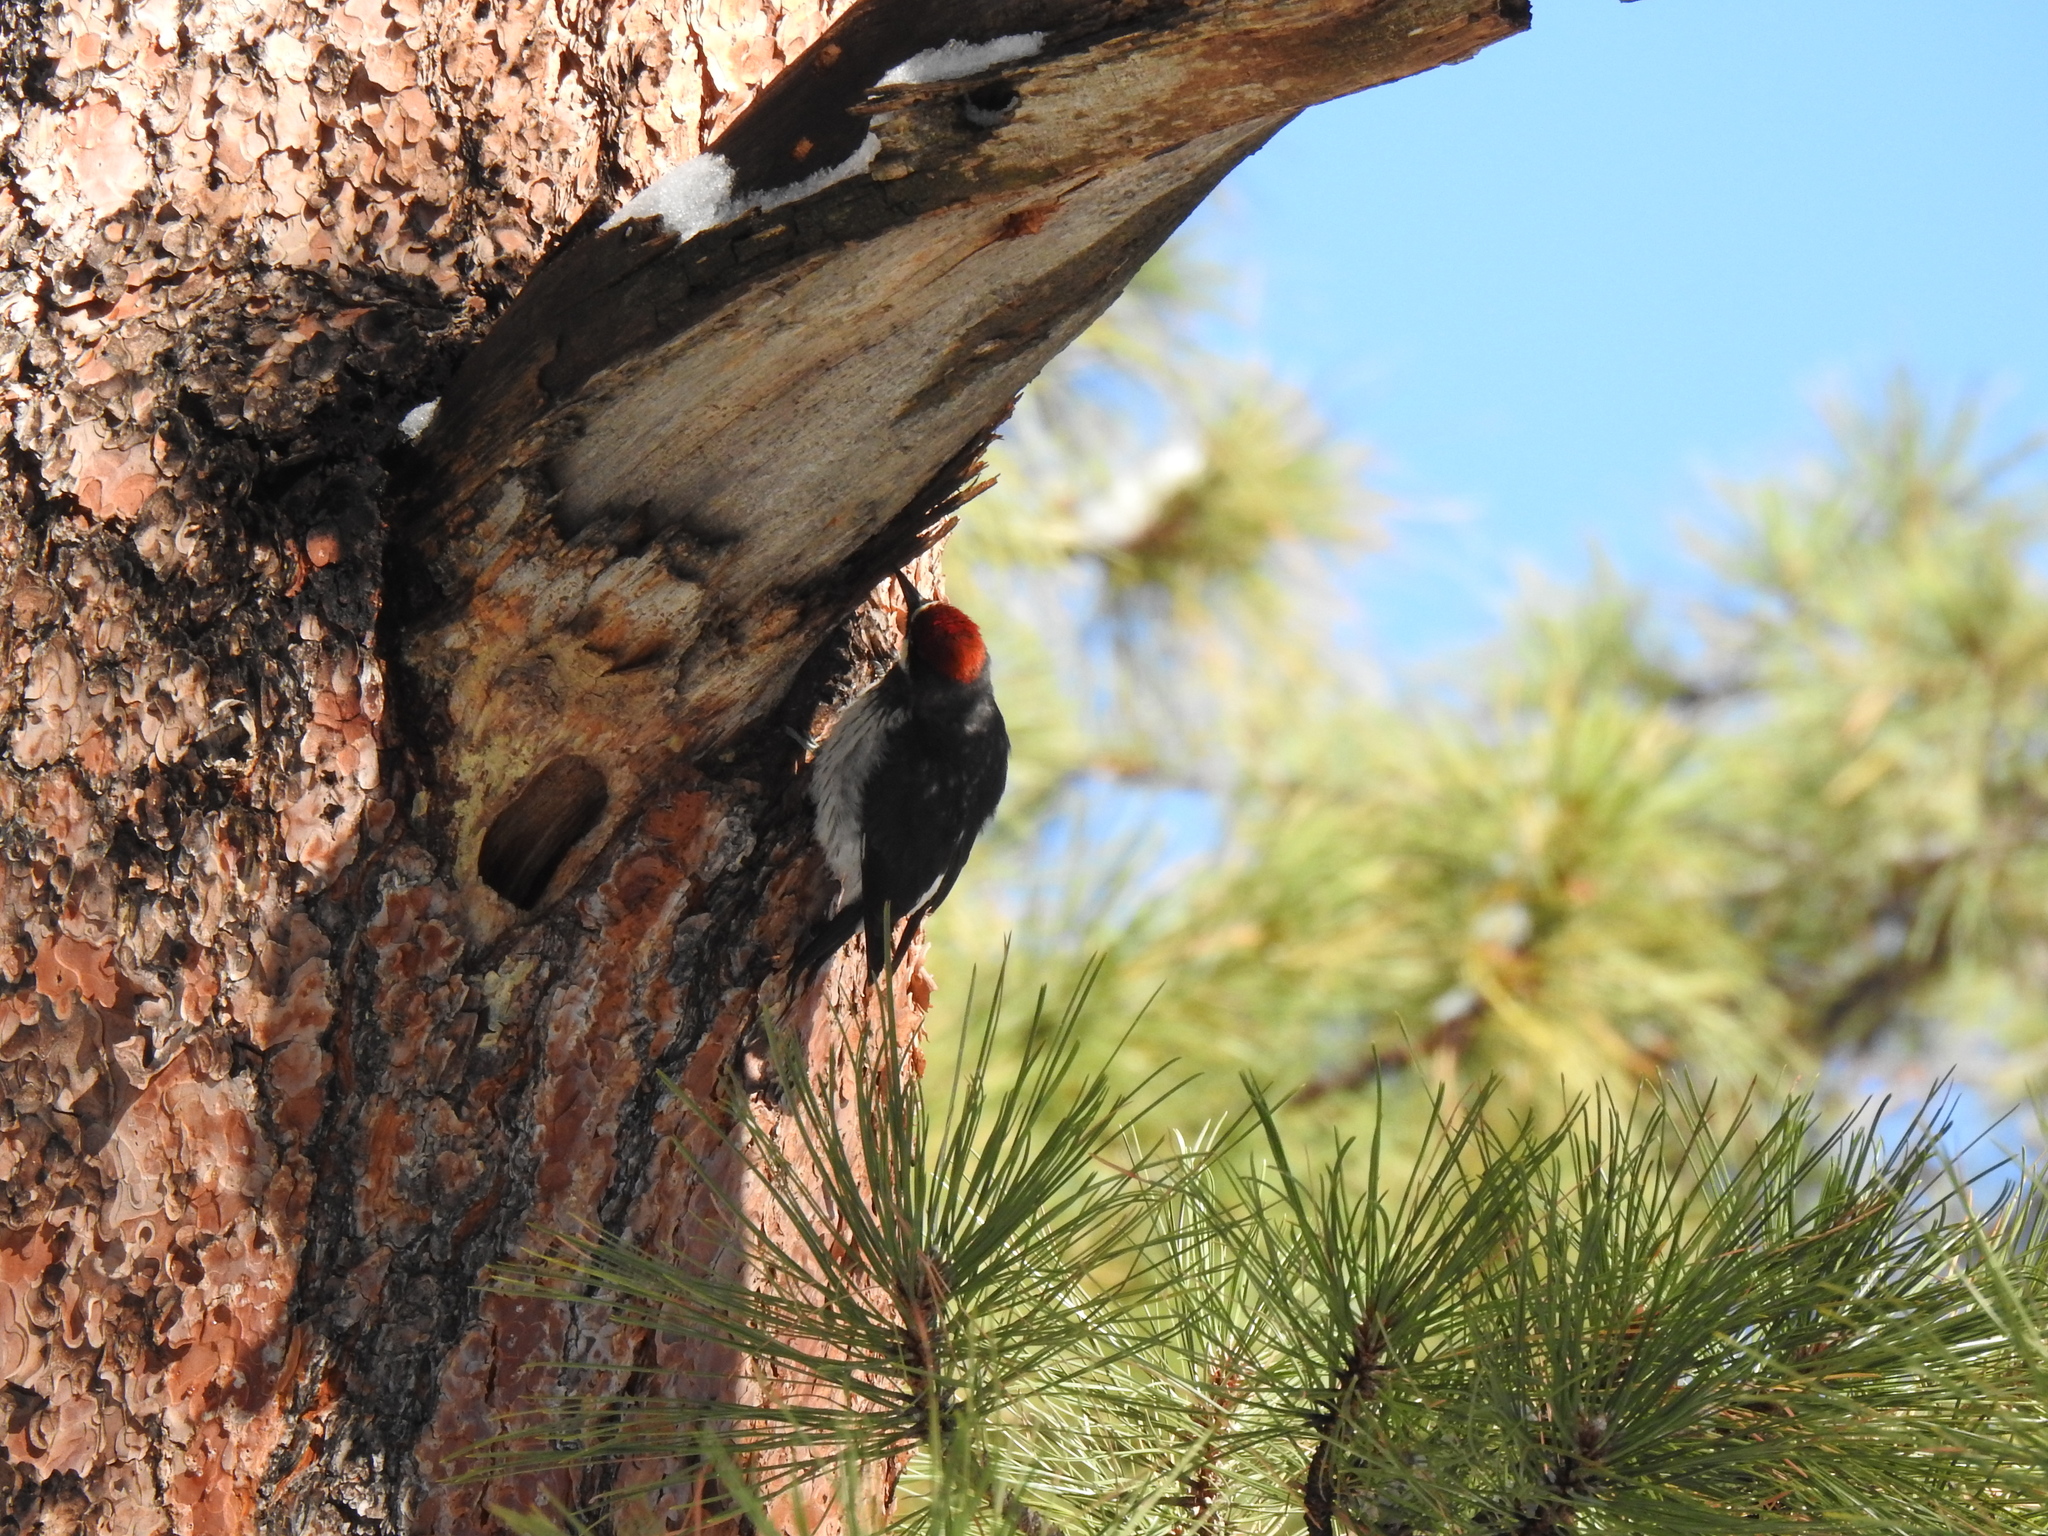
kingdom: Animalia
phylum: Chordata
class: Aves
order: Piciformes
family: Picidae
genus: Melanerpes
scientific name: Melanerpes formicivorus
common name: Acorn woodpecker
